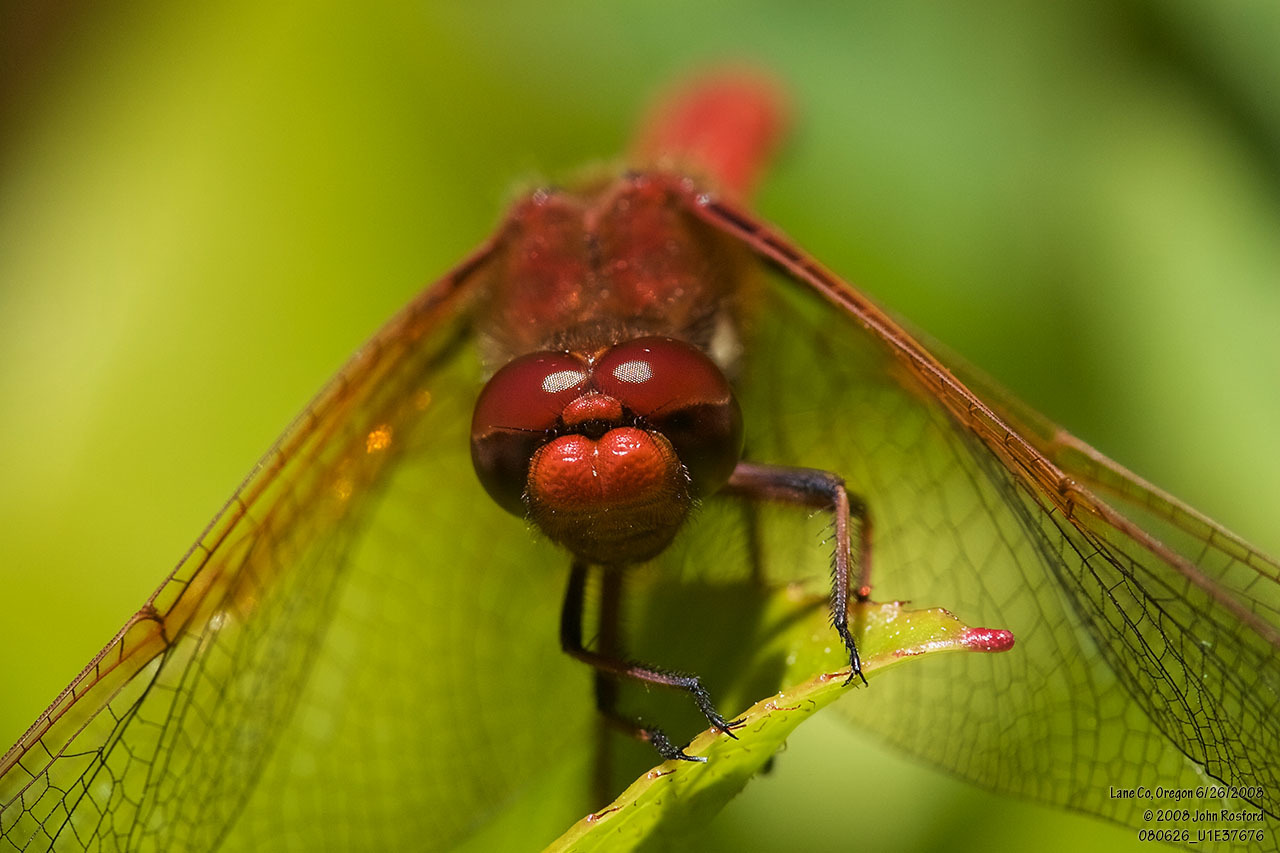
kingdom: Animalia
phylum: Arthropoda
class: Insecta
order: Odonata
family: Libellulidae
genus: Sympetrum
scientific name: Sympetrum illotum
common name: Cardinal meadowhawk
